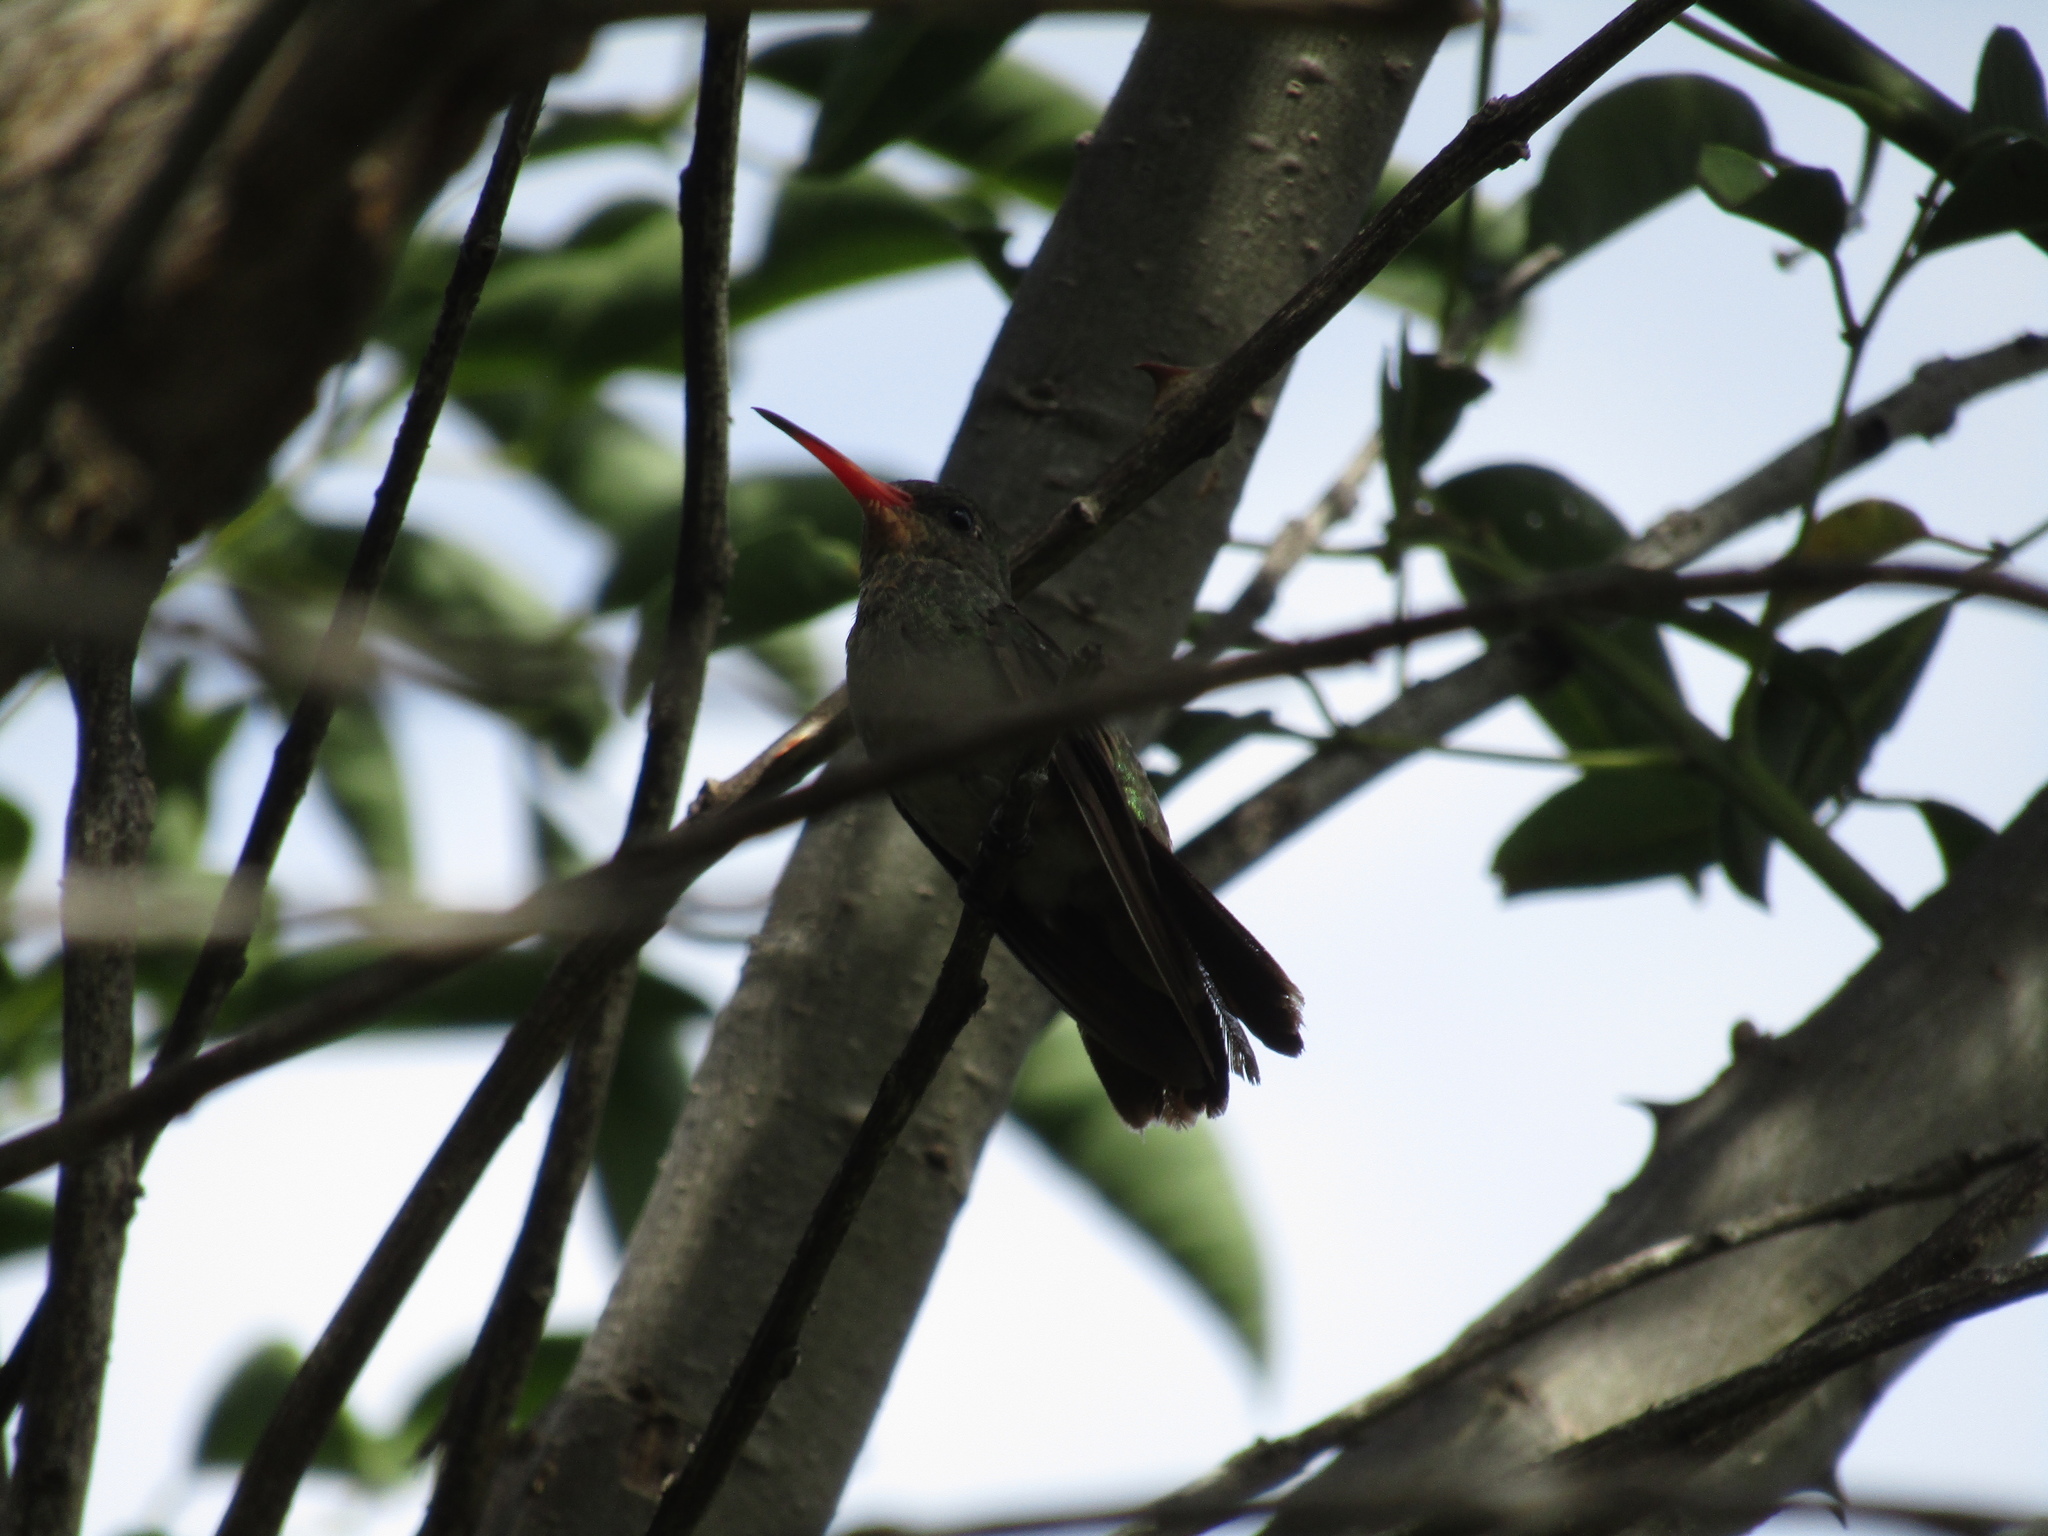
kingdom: Animalia
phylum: Chordata
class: Aves
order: Apodiformes
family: Trochilidae
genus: Hylocharis
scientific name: Hylocharis chrysura
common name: Gilded sapphire
